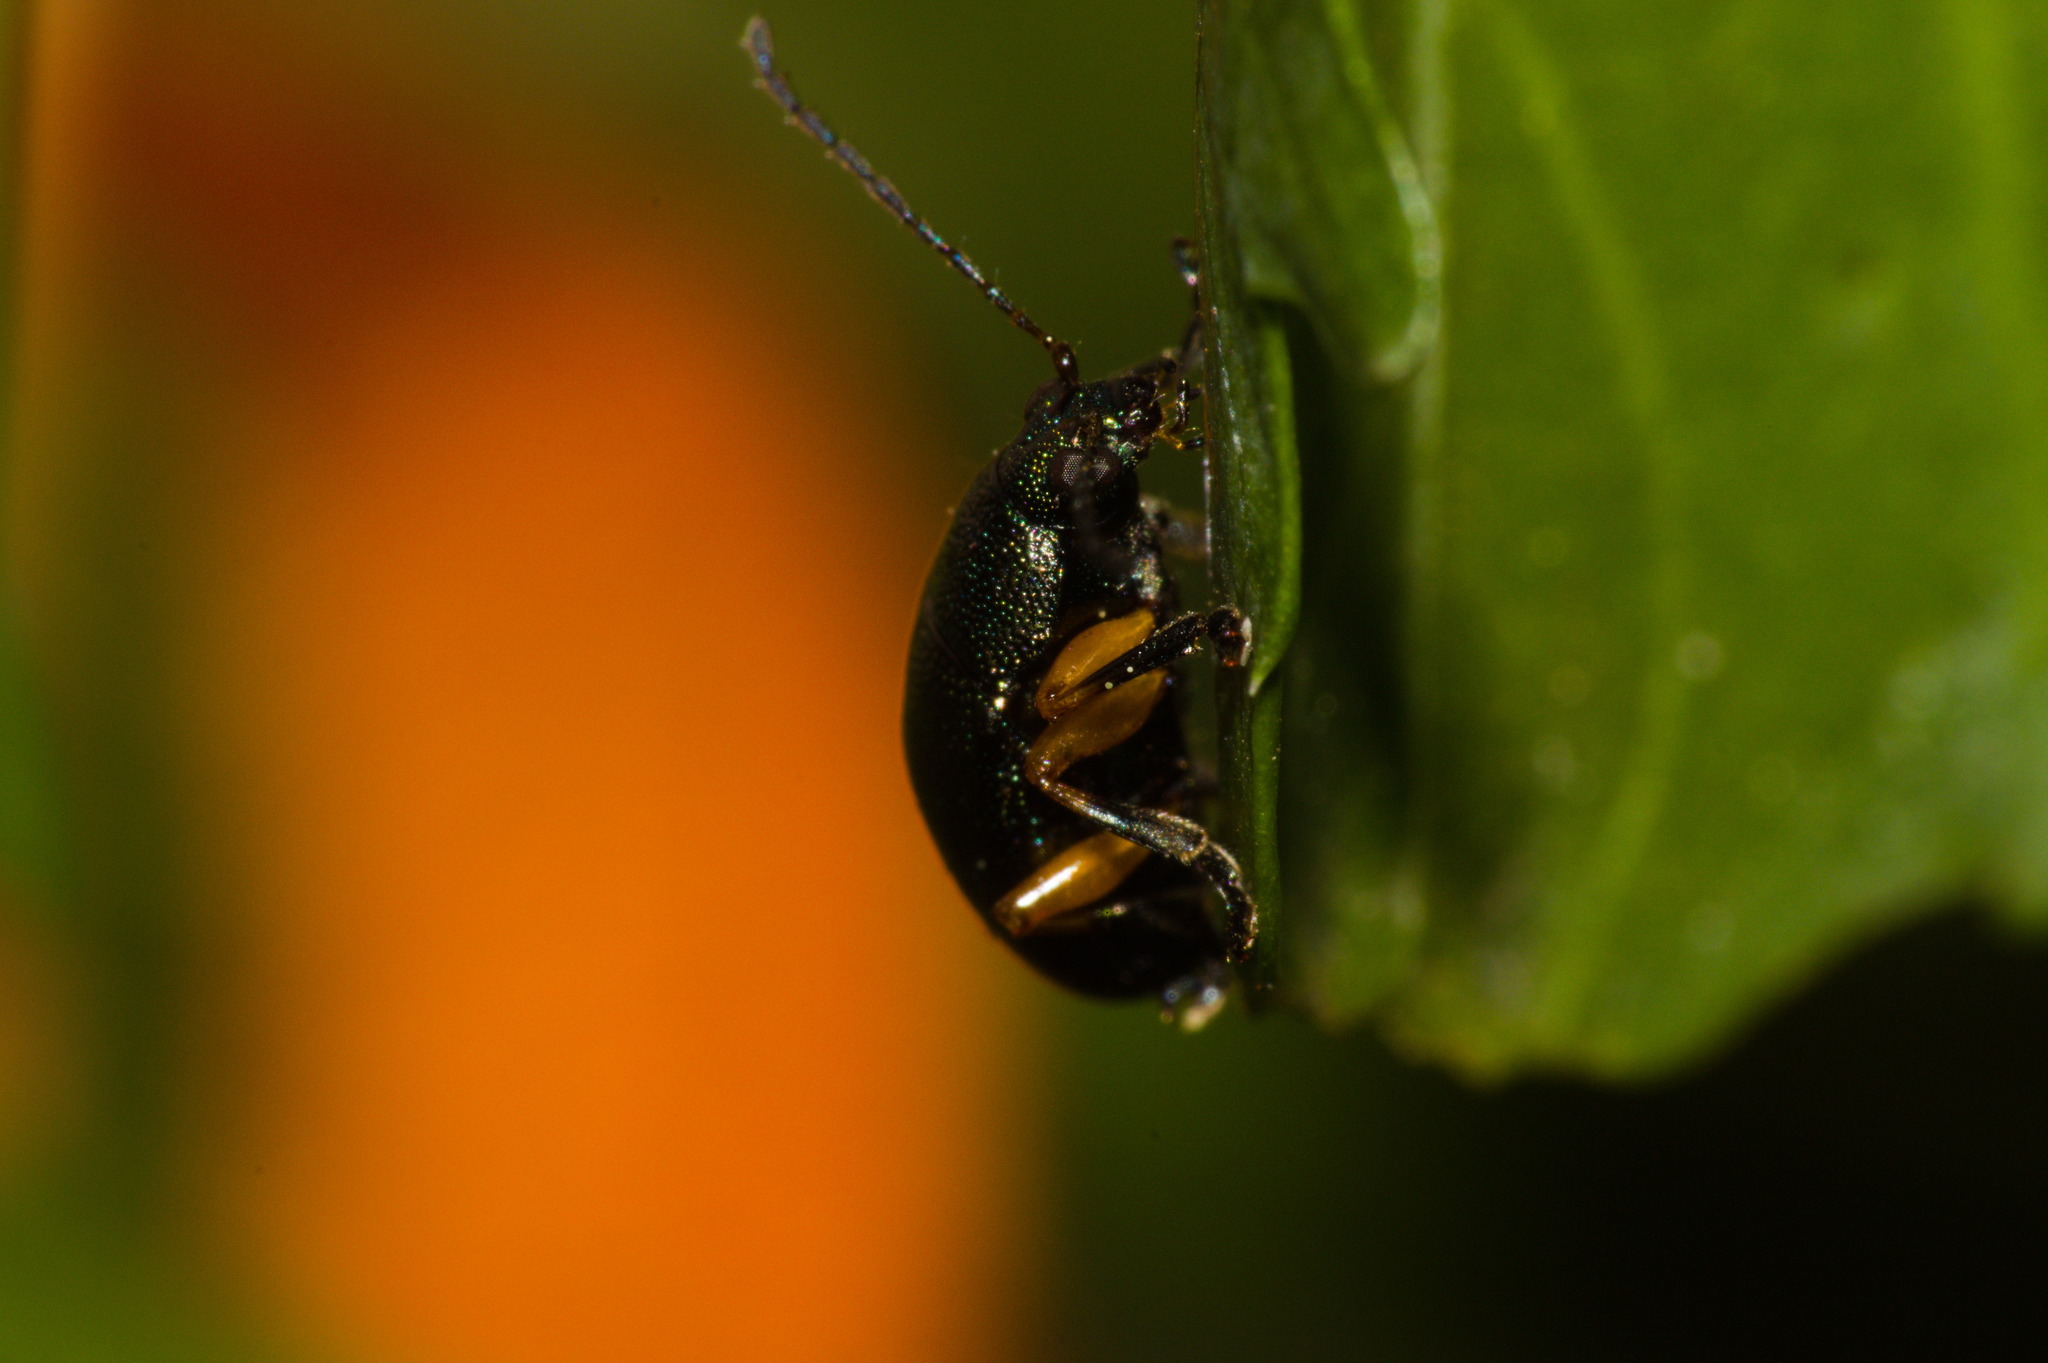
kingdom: Animalia
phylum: Arthropoda
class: Insecta
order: Coleoptera
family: Chrysomelidae
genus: Nodocolaspis
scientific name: Nodocolaspis
